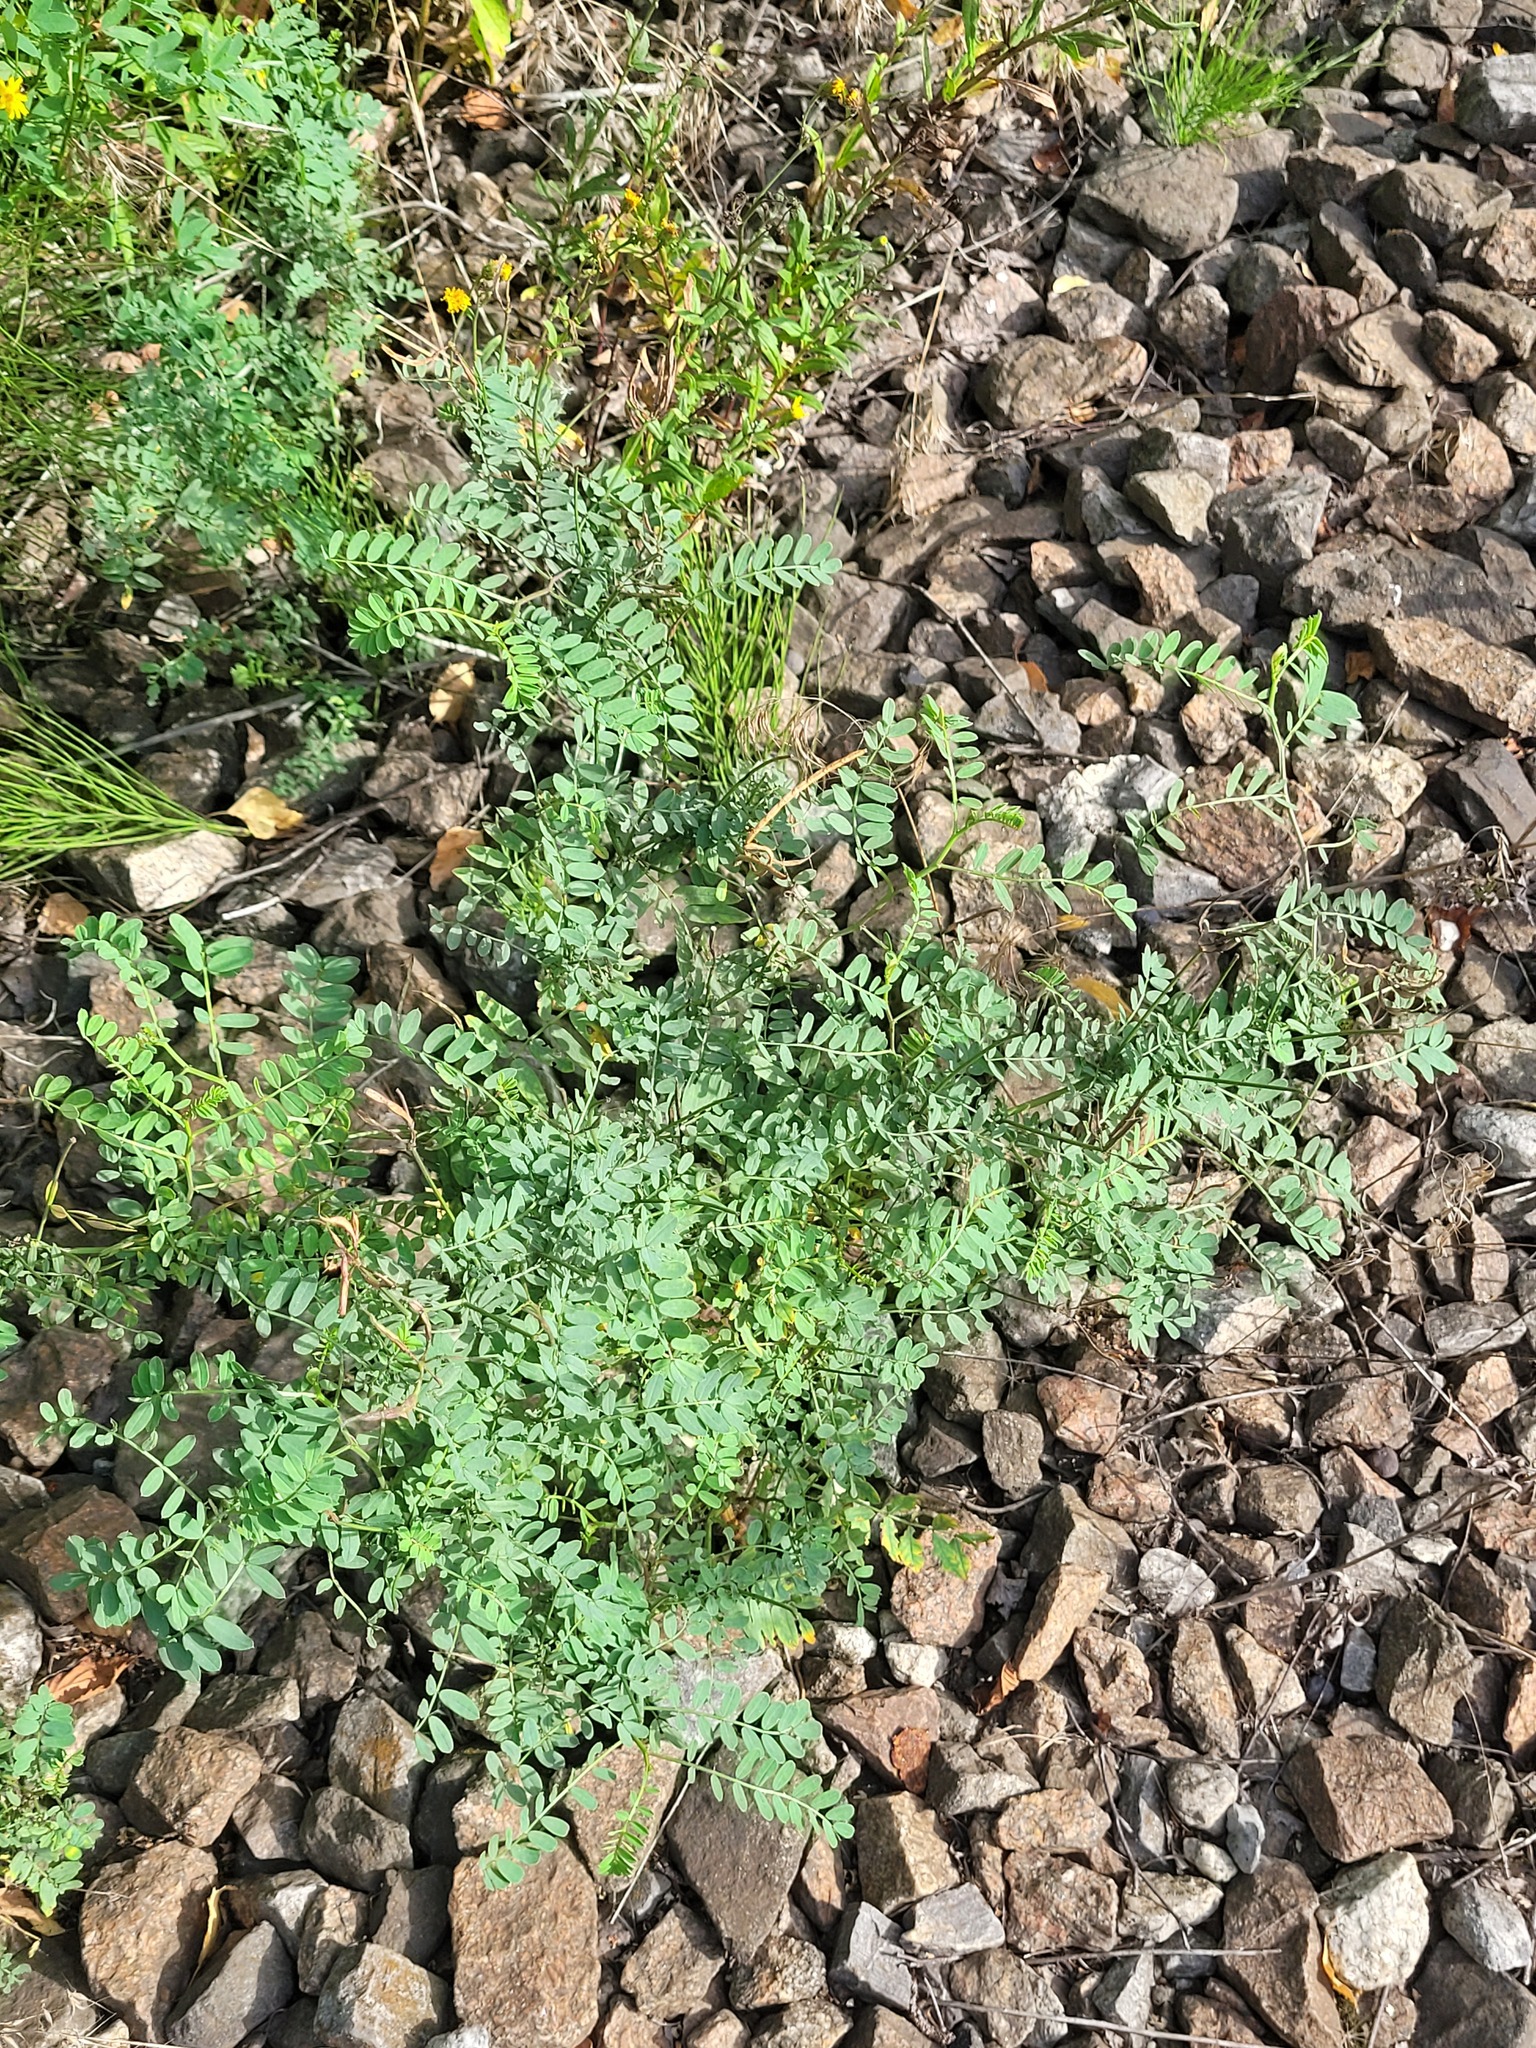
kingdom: Plantae
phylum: Tracheophyta
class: Magnoliopsida
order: Fabales
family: Fabaceae
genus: Coronilla
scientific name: Coronilla varia
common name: Crownvetch
